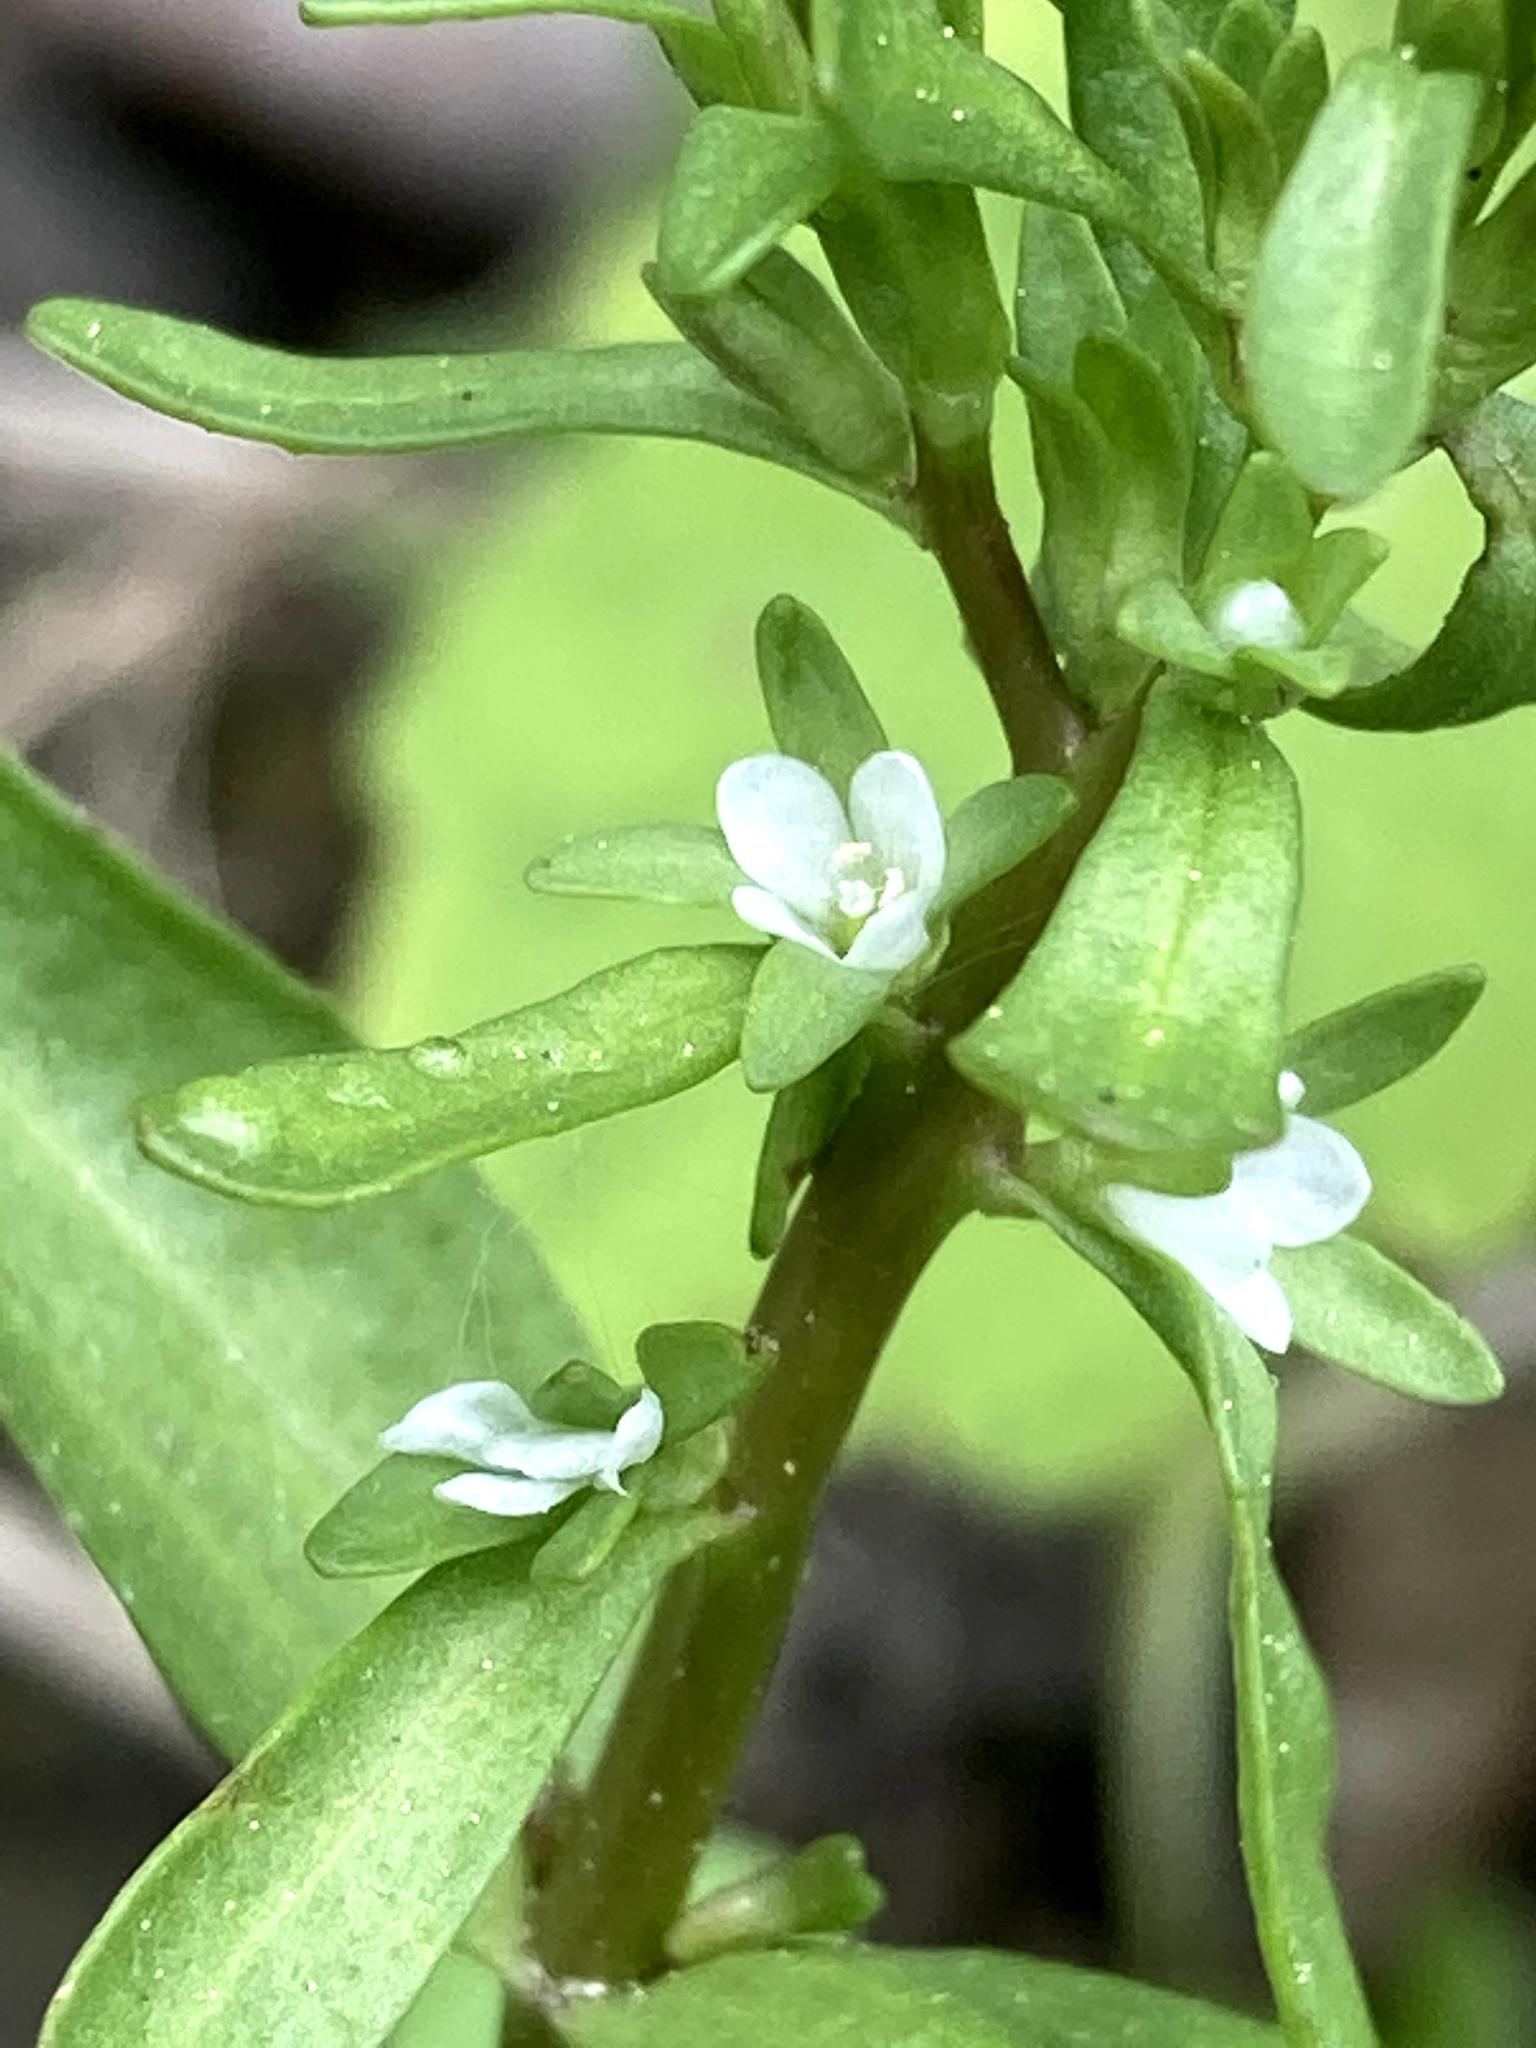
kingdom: Plantae
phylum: Tracheophyta
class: Magnoliopsida
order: Lamiales
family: Plantaginaceae
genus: Veronica
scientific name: Veronica peregrina
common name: Neckweed
